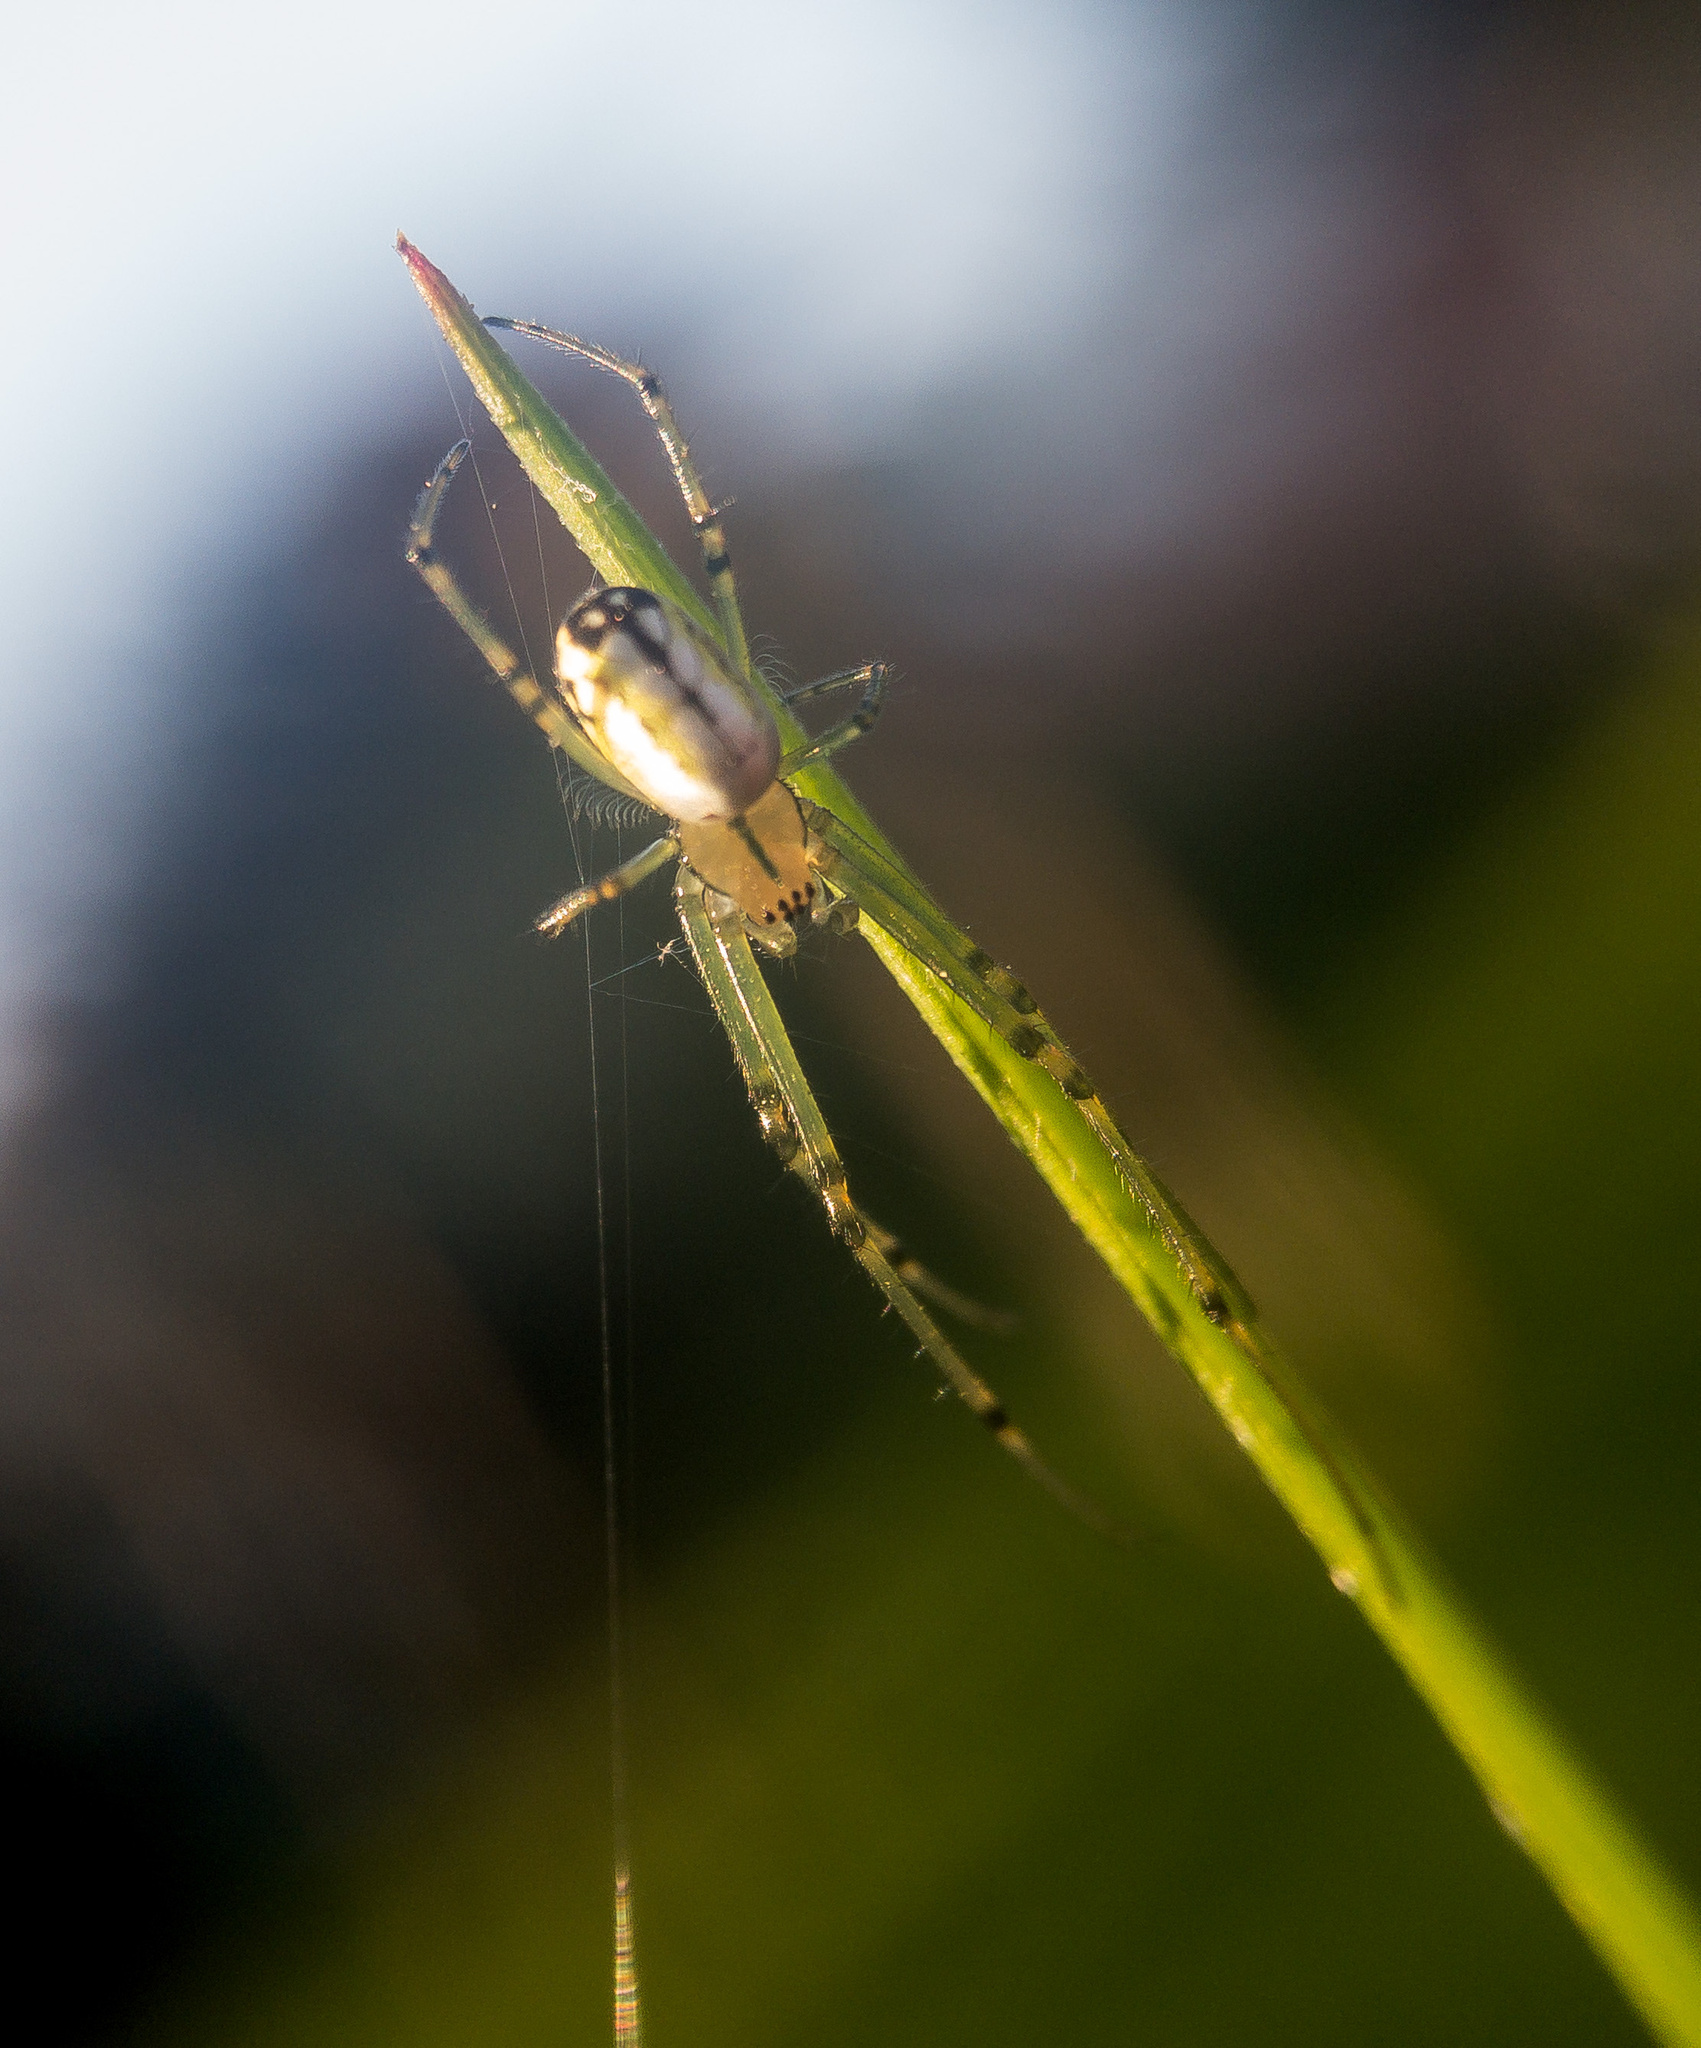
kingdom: Animalia
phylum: Arthropoda
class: Arachnida
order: Araneae
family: Tetragnathidae
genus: Leucauge
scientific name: Leucauge venusta
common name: Longjawed orb weavers
